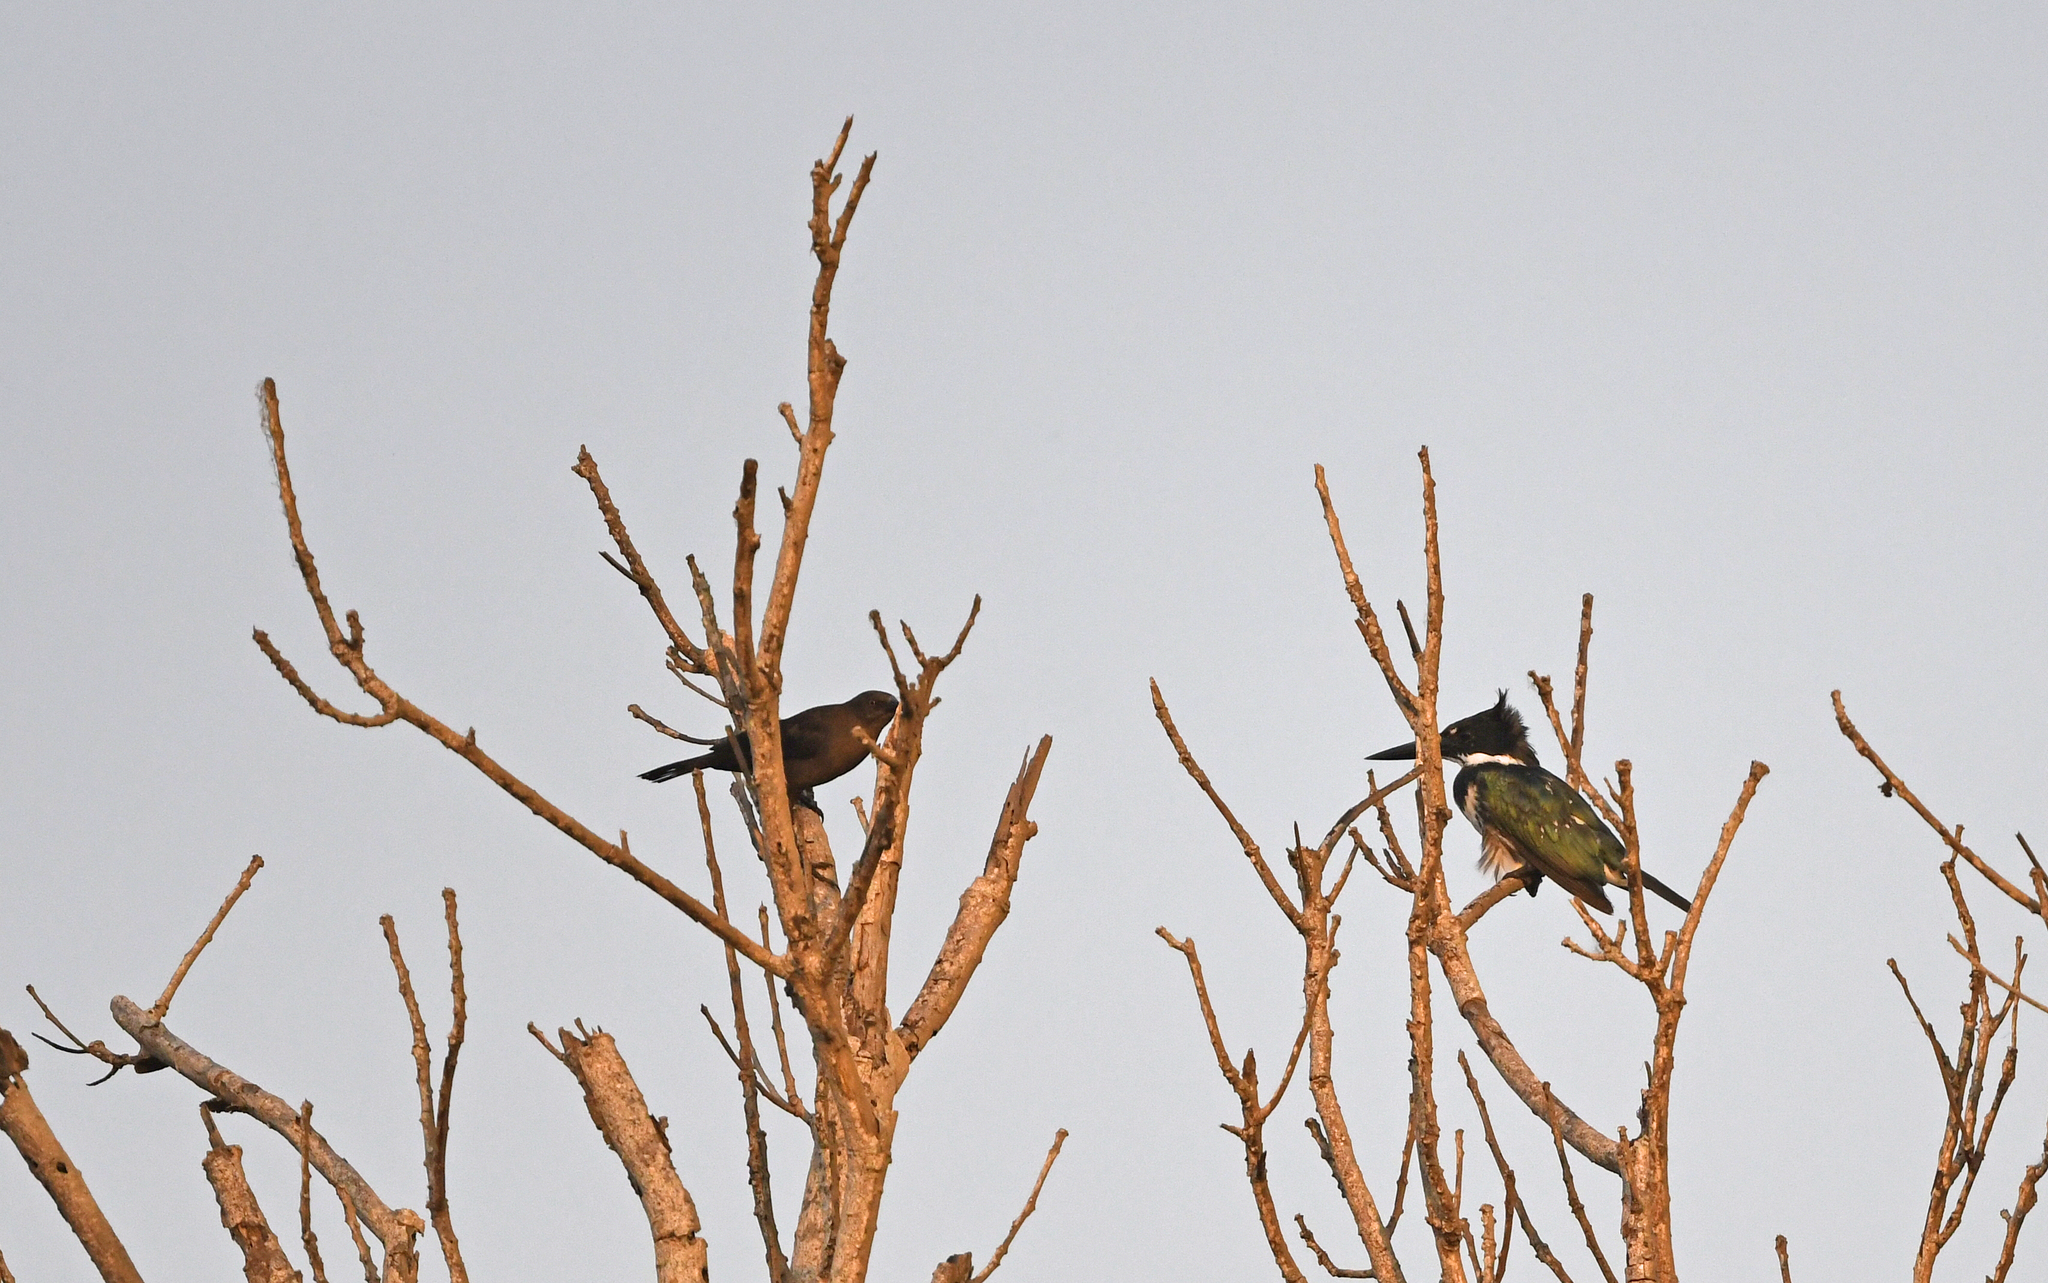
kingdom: Animalia
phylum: Chordata
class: Aves
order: Coraciiformes
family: Alcedinidae
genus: Chloroceryle
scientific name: Chloroceryle amazona
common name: Amazon kingfisher
